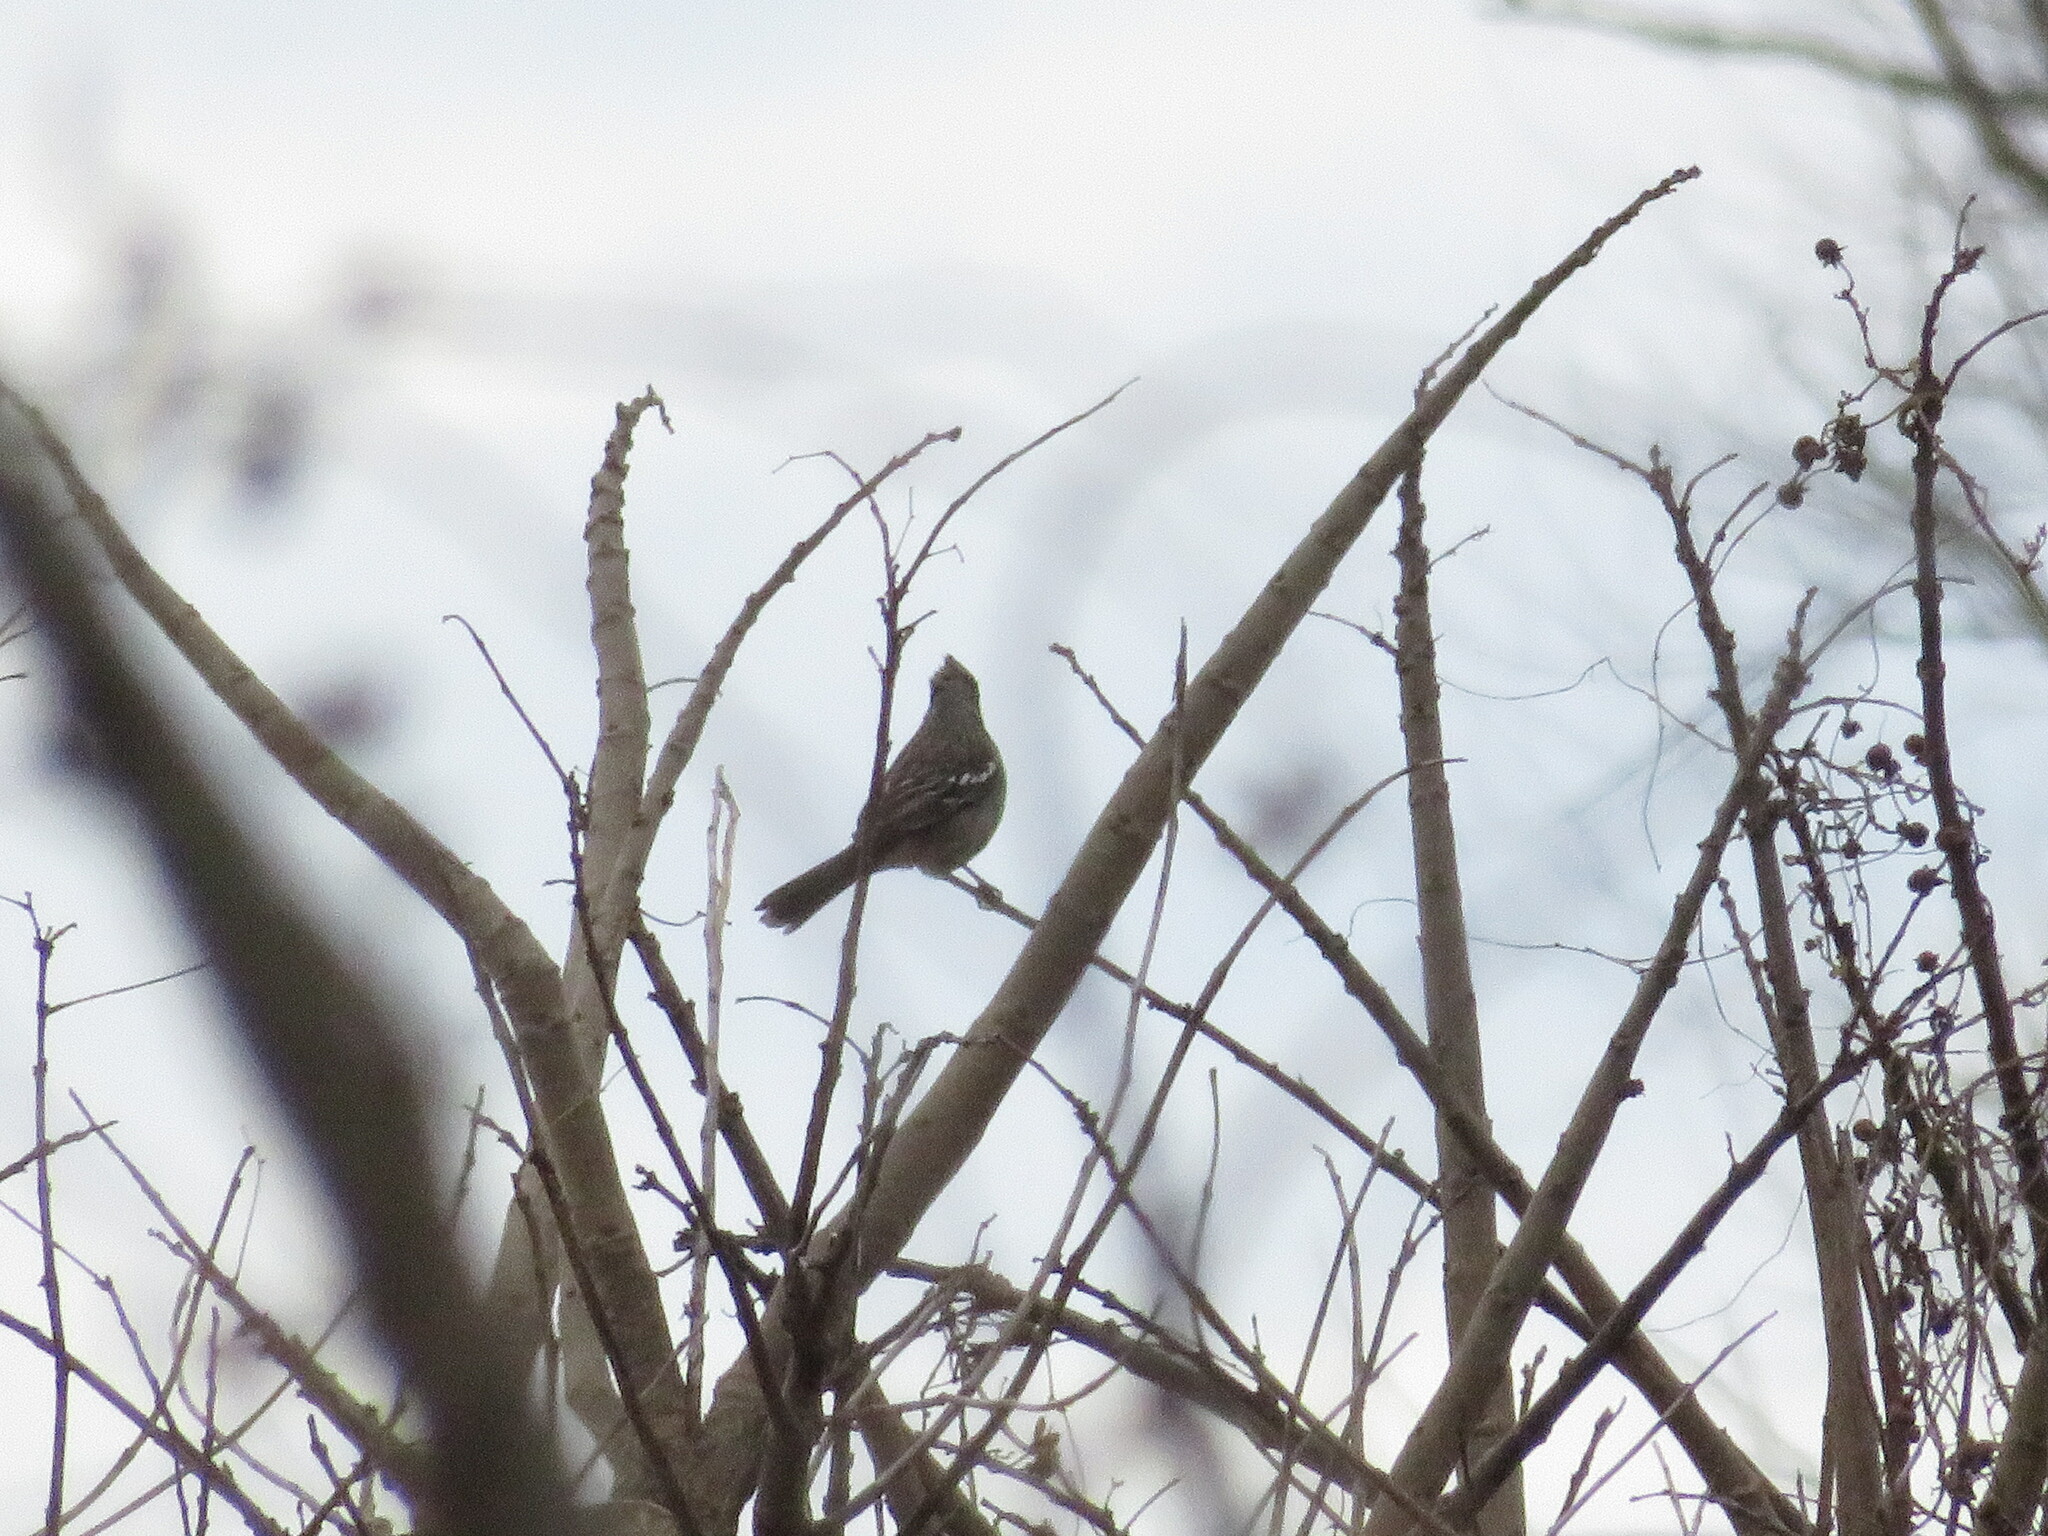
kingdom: Animalia
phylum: Chordata
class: Aves
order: Passeriformes
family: Cotingidae
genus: Phytotoma
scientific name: Phytotoma rutila
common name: White-tipped plantcutter
